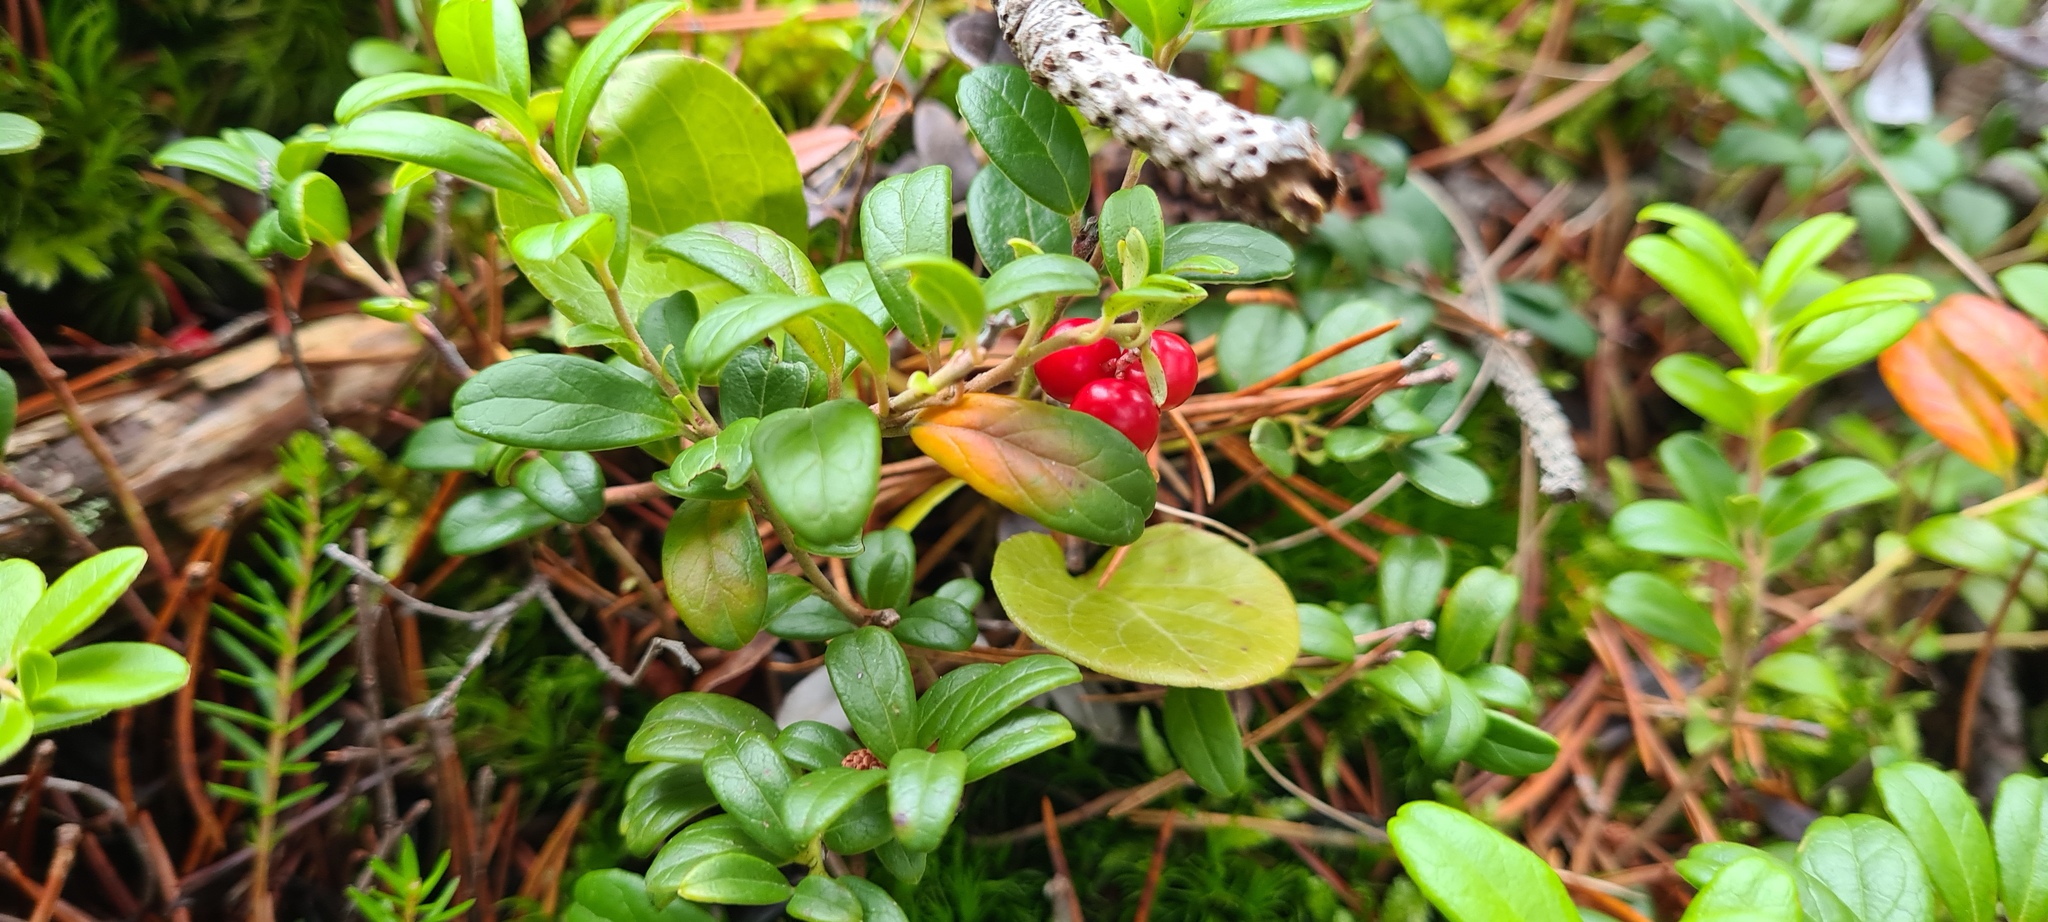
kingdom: Plantae
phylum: Tracheophyta
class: Magnoliopsida
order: Ericales
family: Ericaceae
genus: Vaccinium
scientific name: Vaccinium vitis-idaea
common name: Cowberry
